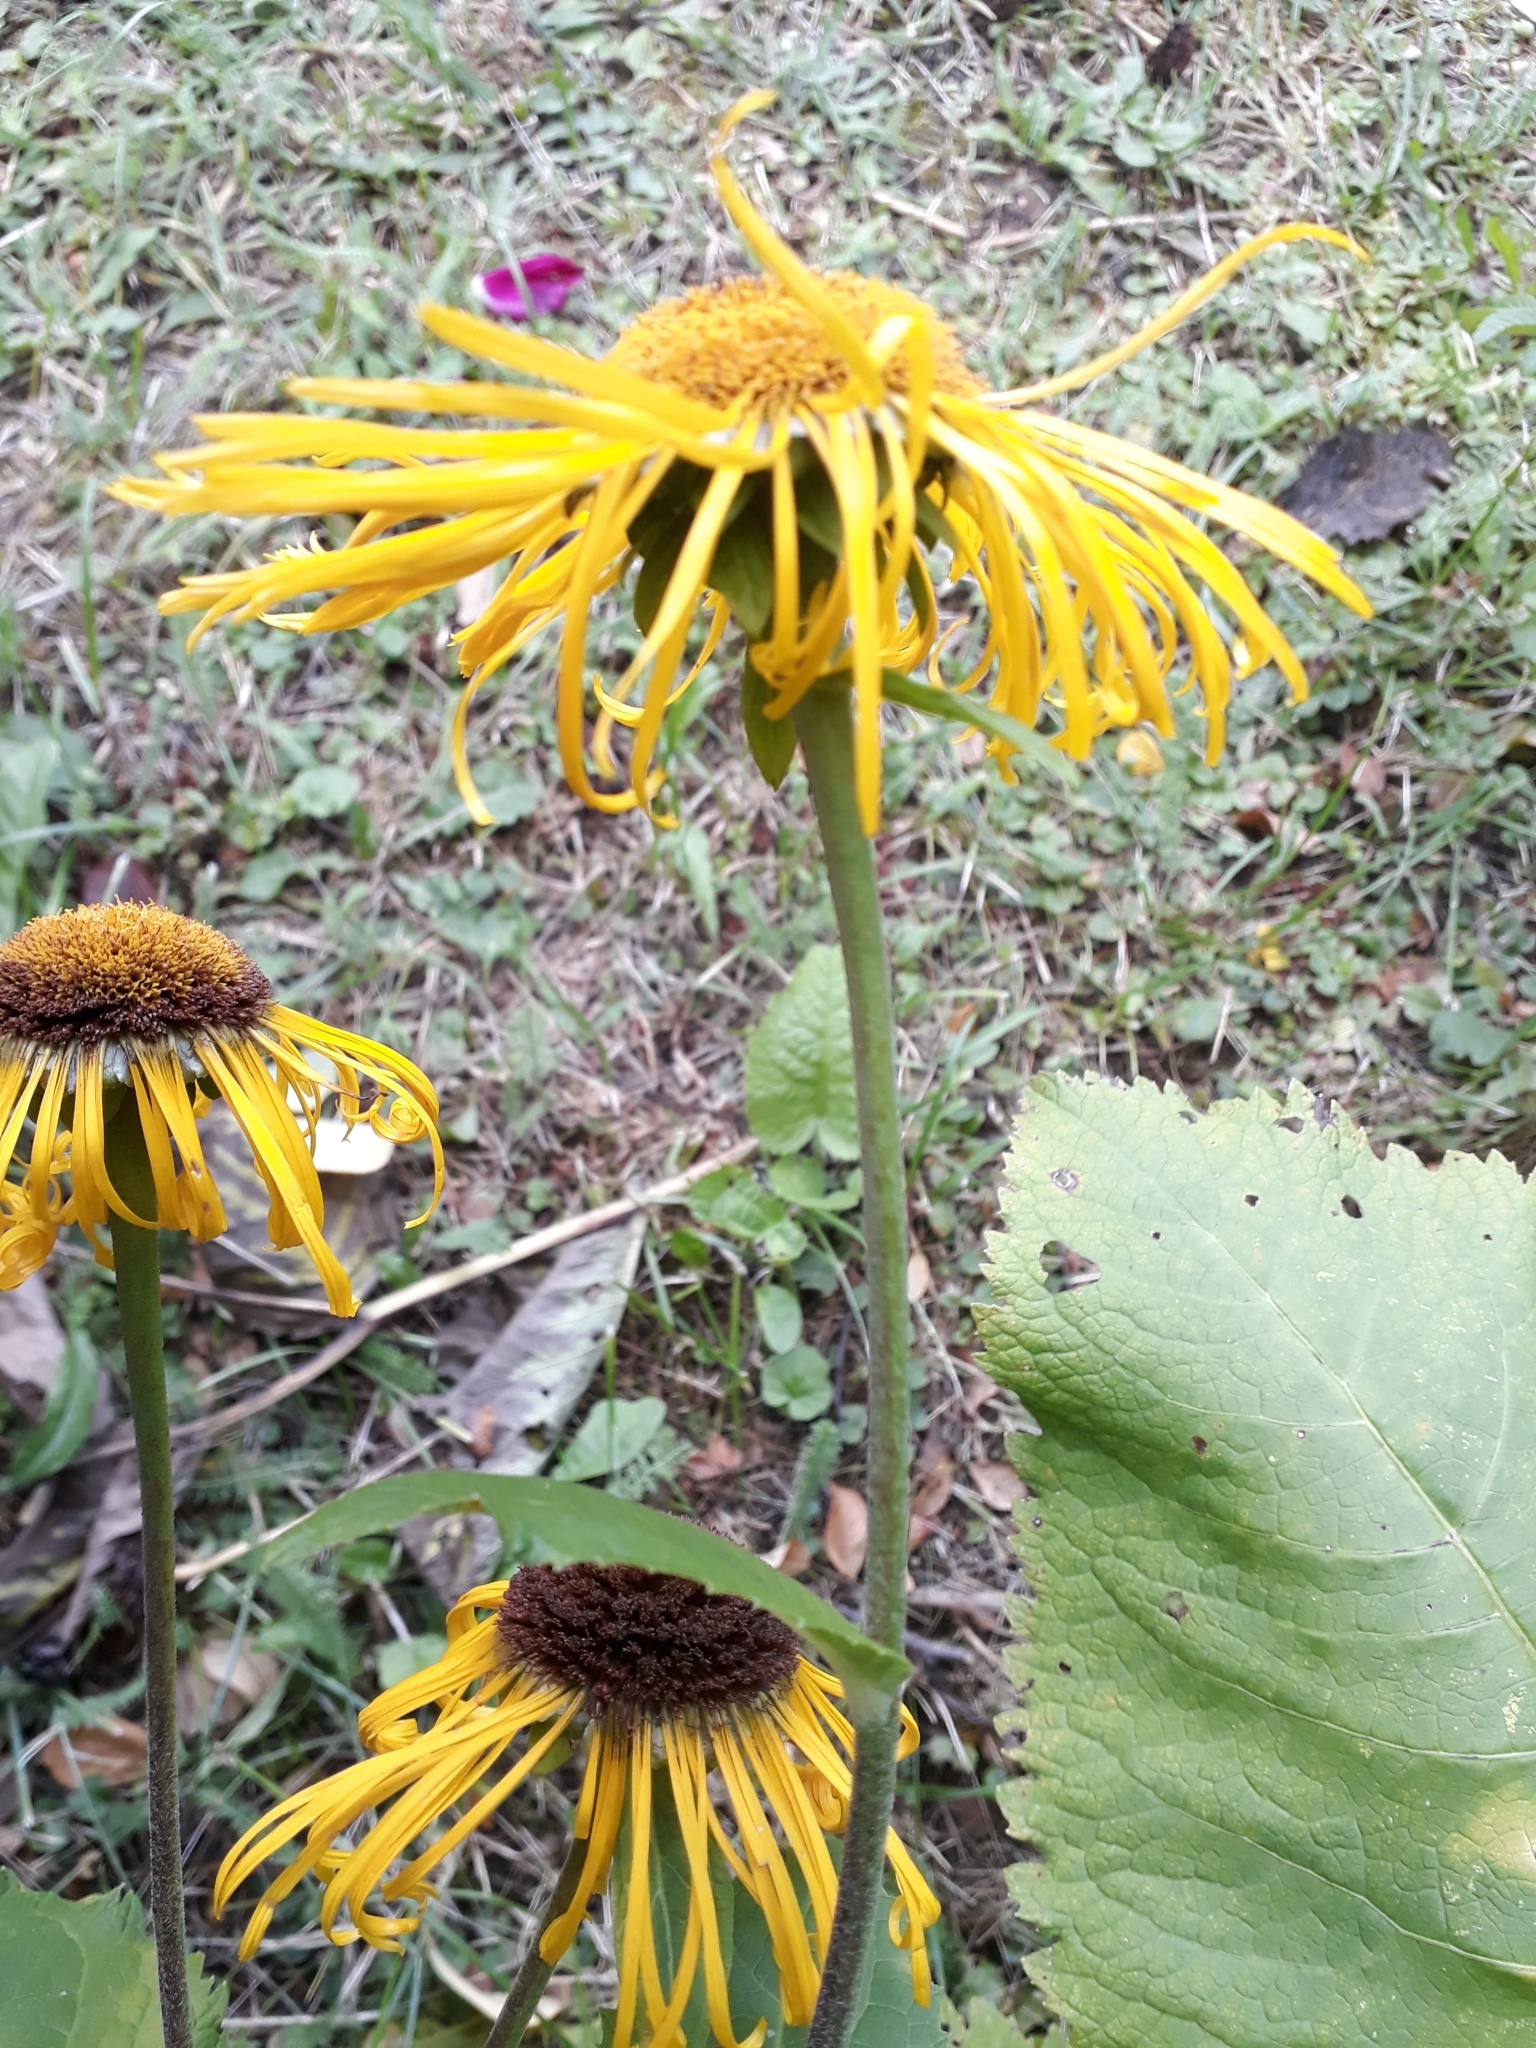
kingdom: Plantae
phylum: Tracheophyta
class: Magnoliopsida
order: Asterales
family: Asteraceae
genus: Telekia
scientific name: Telekia speciosa
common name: Yellow oxeye
